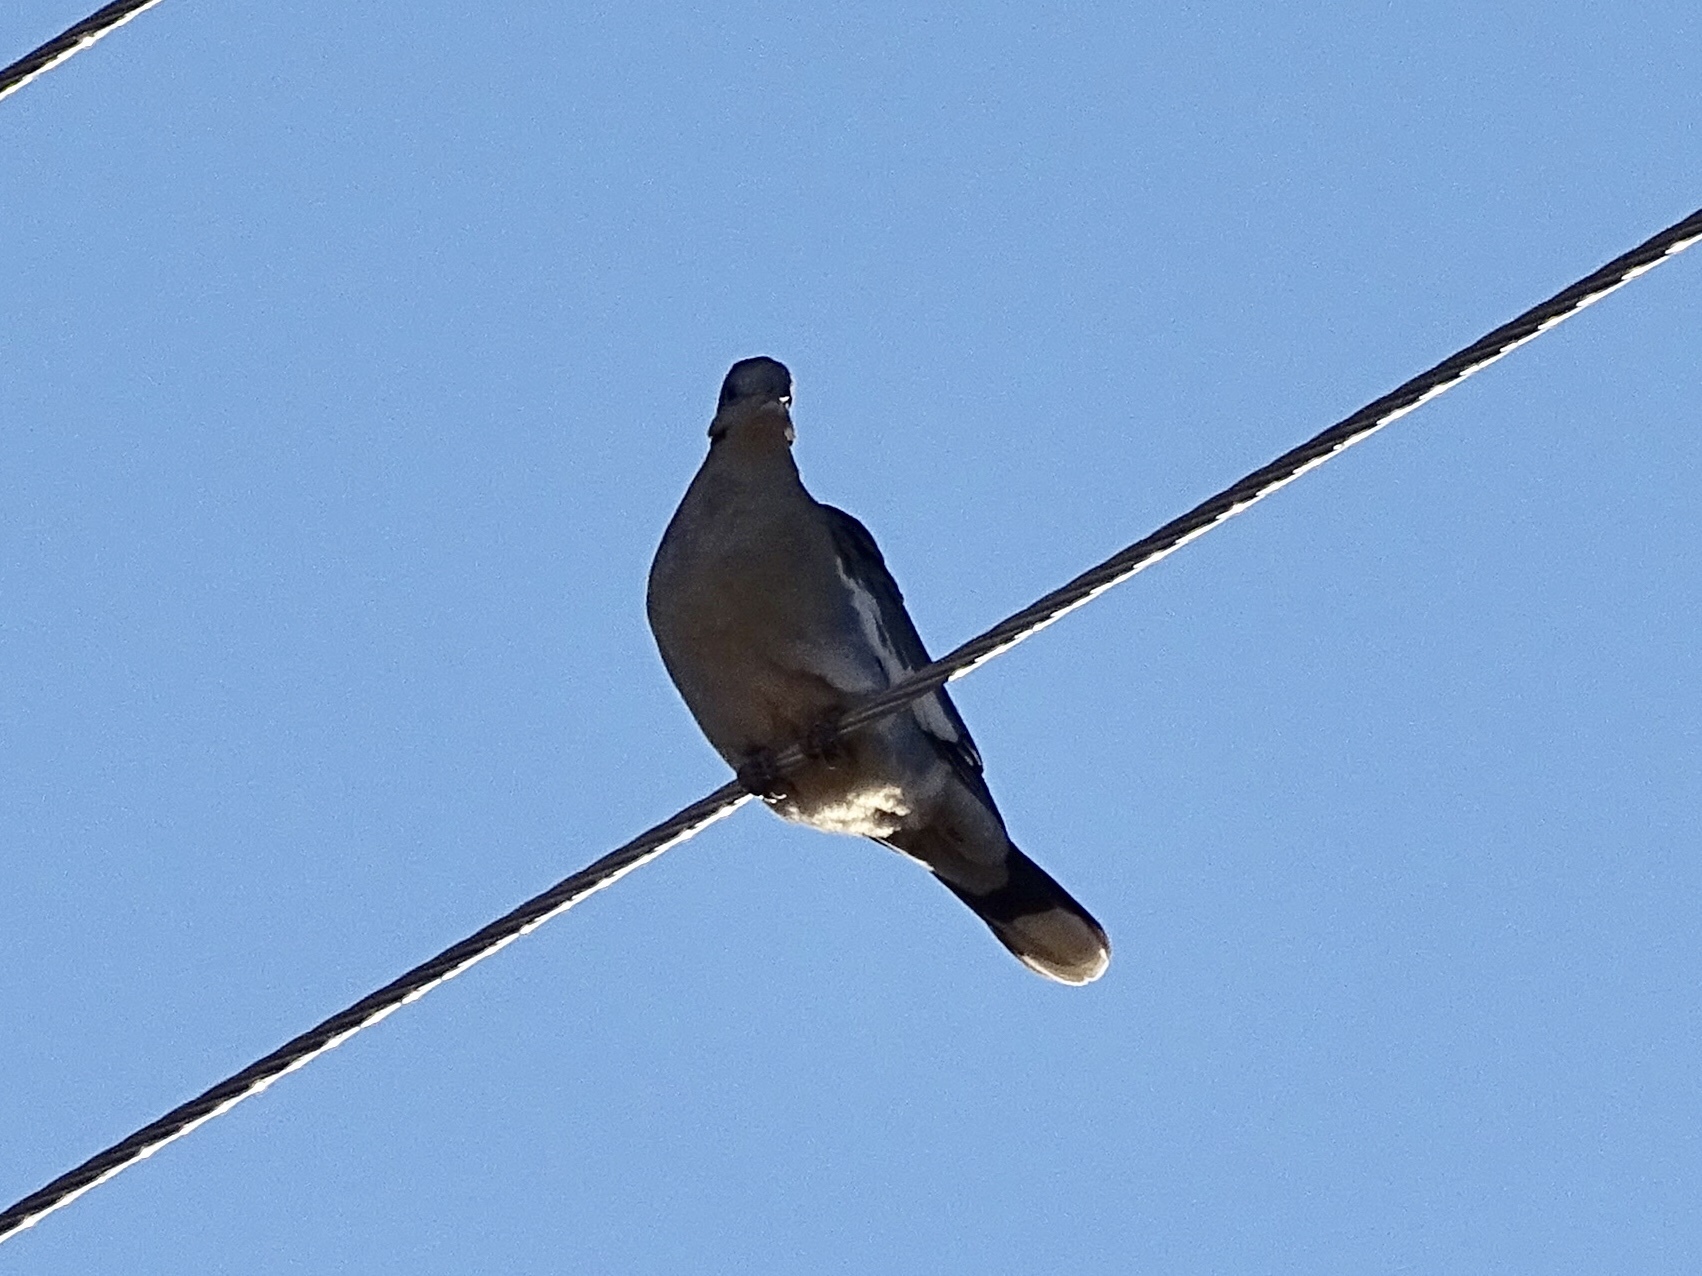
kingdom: Animalia
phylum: Chordata
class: Aves
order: Columbiformes
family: Columbidae
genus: Zenaida
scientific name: Zenaida asiatica
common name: White-winged dove
